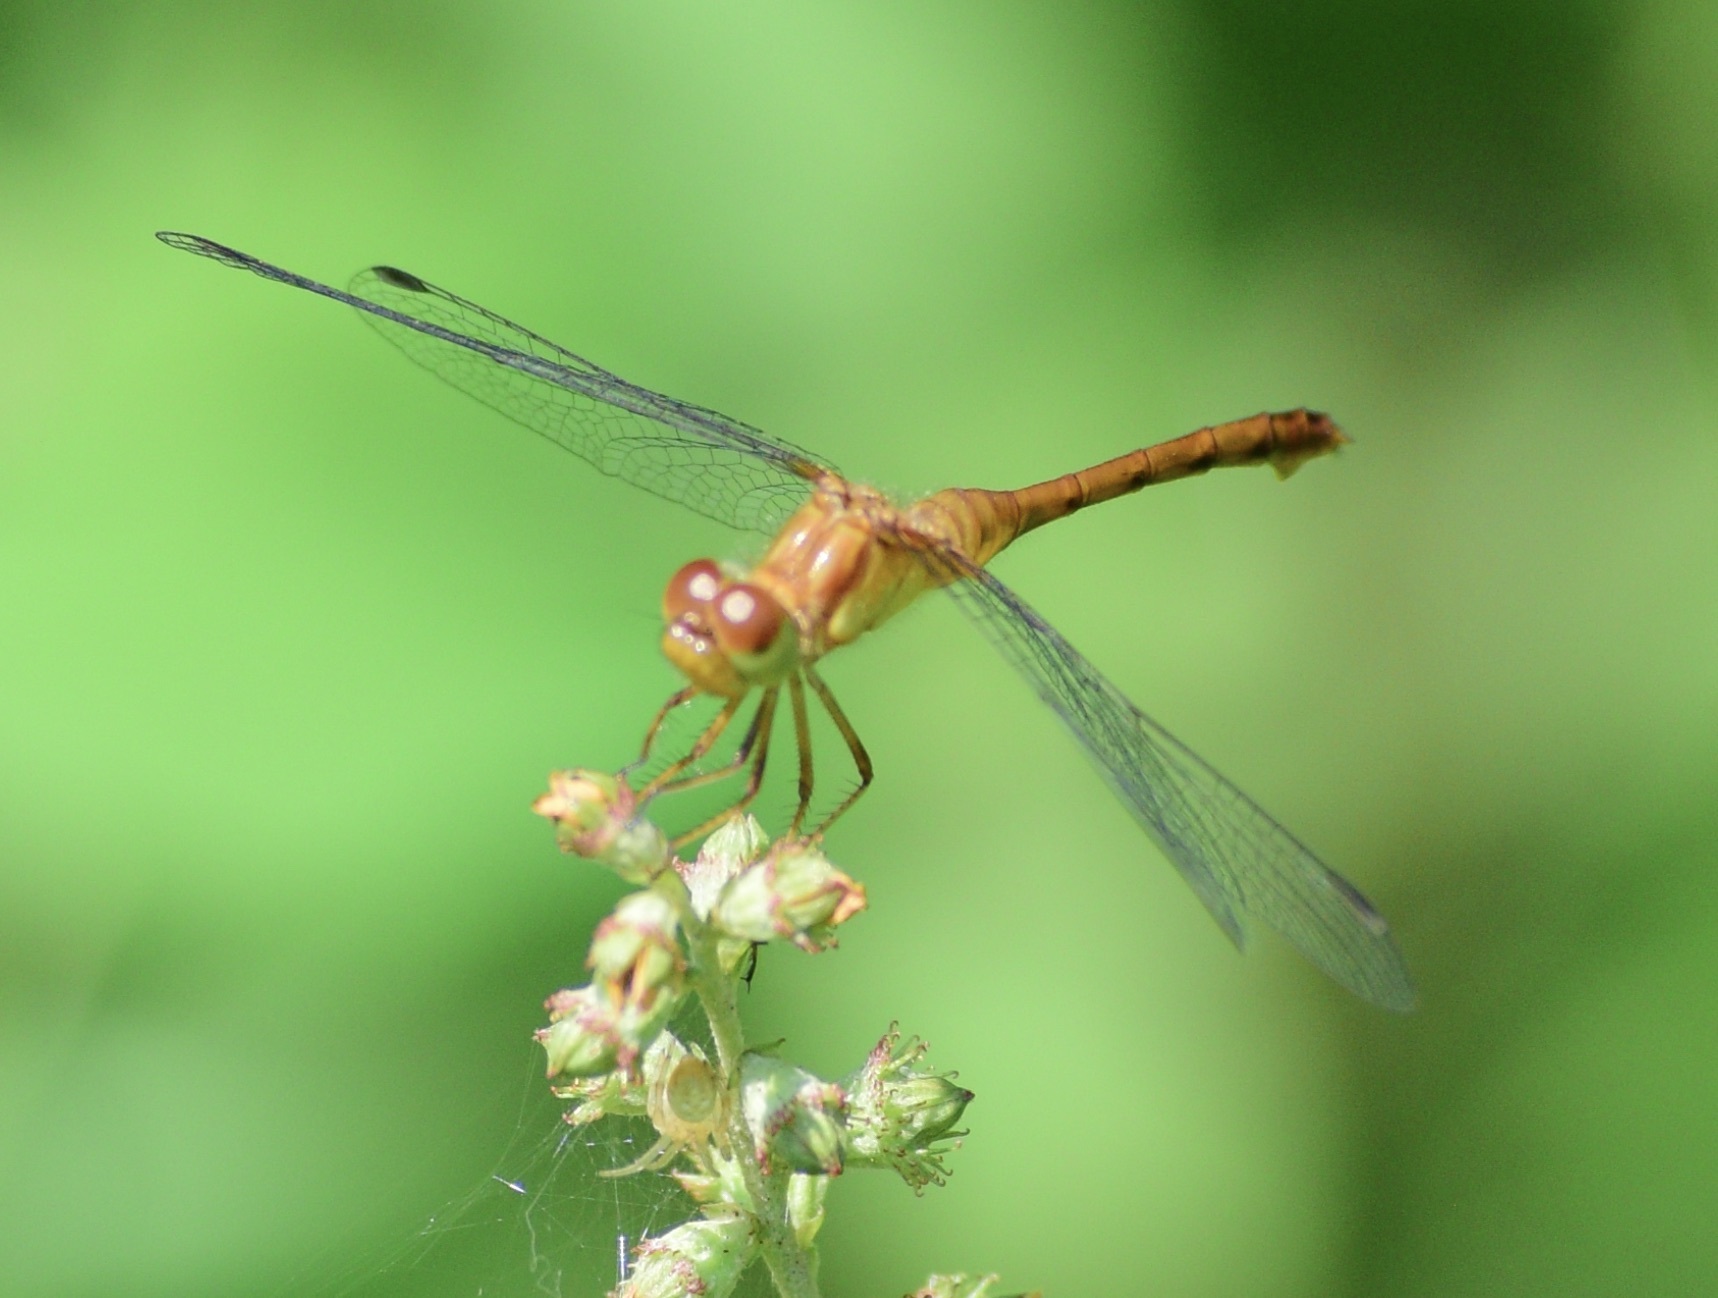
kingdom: Animalia
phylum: Arthropoda
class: Insecta
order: Odonata
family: Libellulidae
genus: Sympetrum
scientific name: Sympetrum vicinum
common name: Autumn meadowhawk
